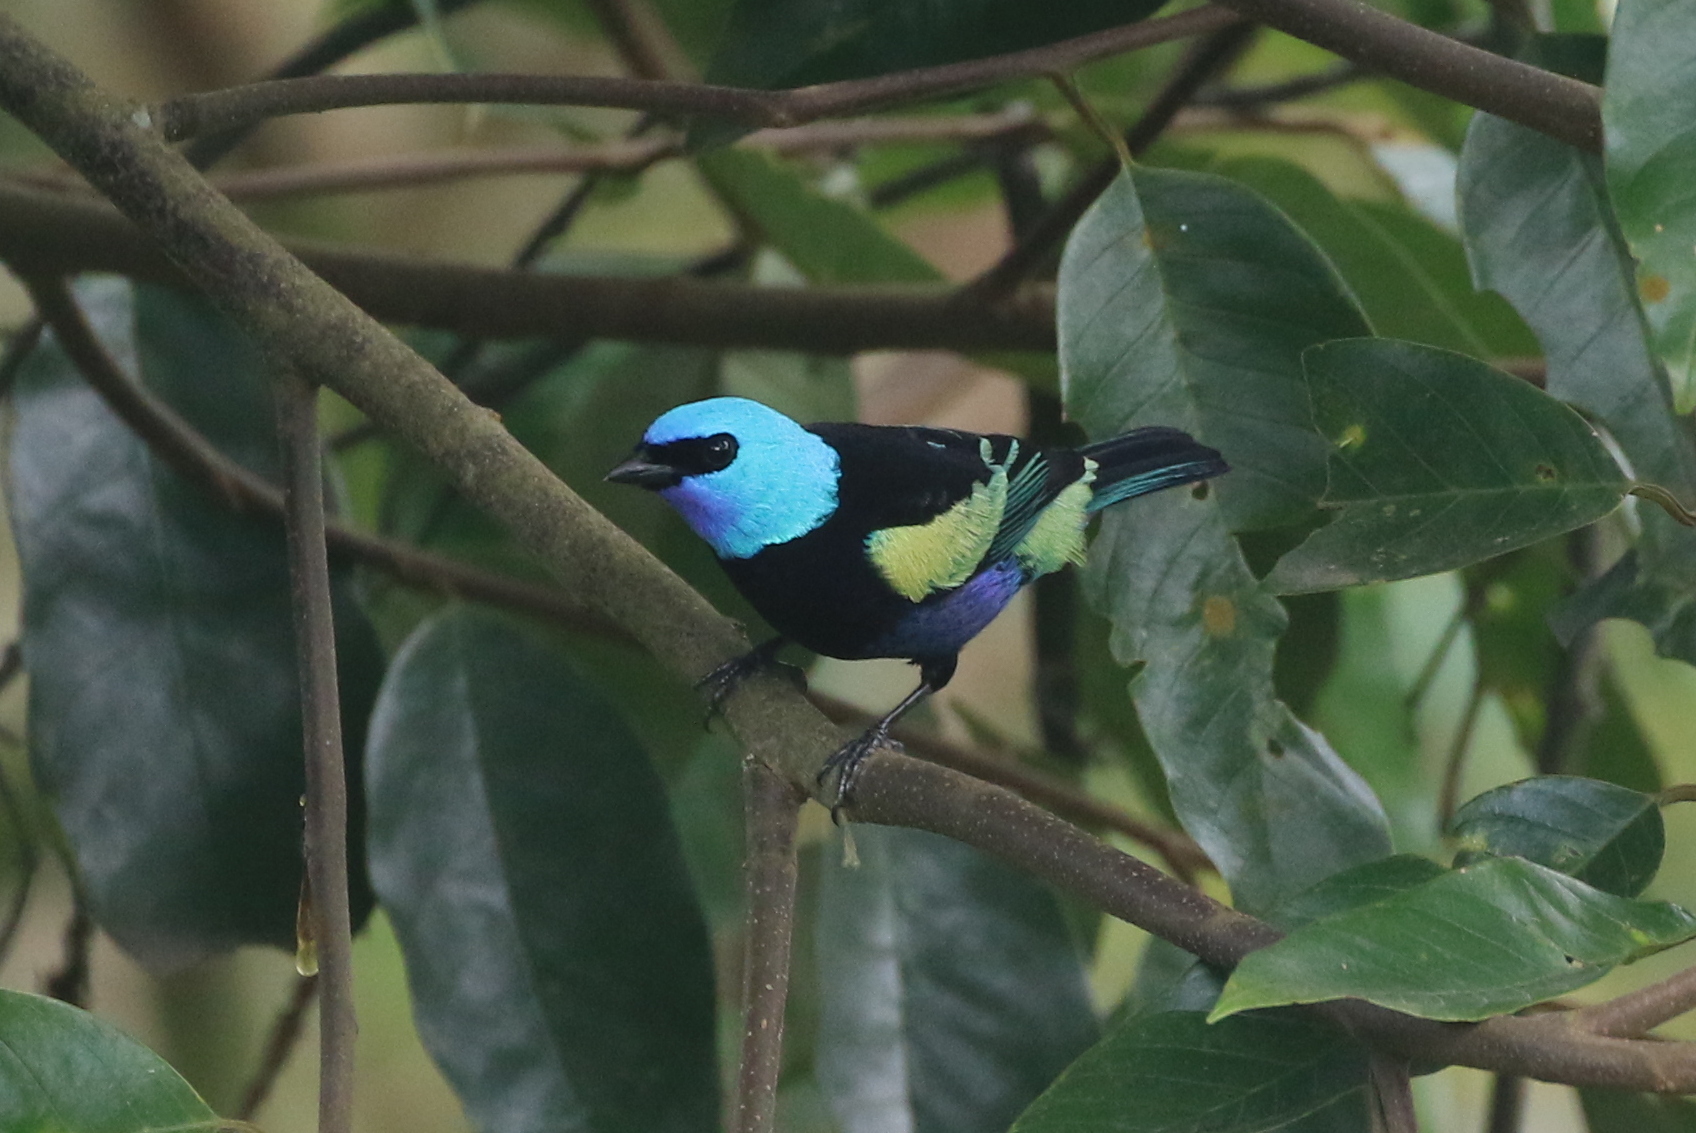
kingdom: Animalia
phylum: Chordata
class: Aves
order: Passeriformes
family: Thraupidae
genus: Stilpnia
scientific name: Stilpnia cyanicollis
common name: Blue-necked tanager
